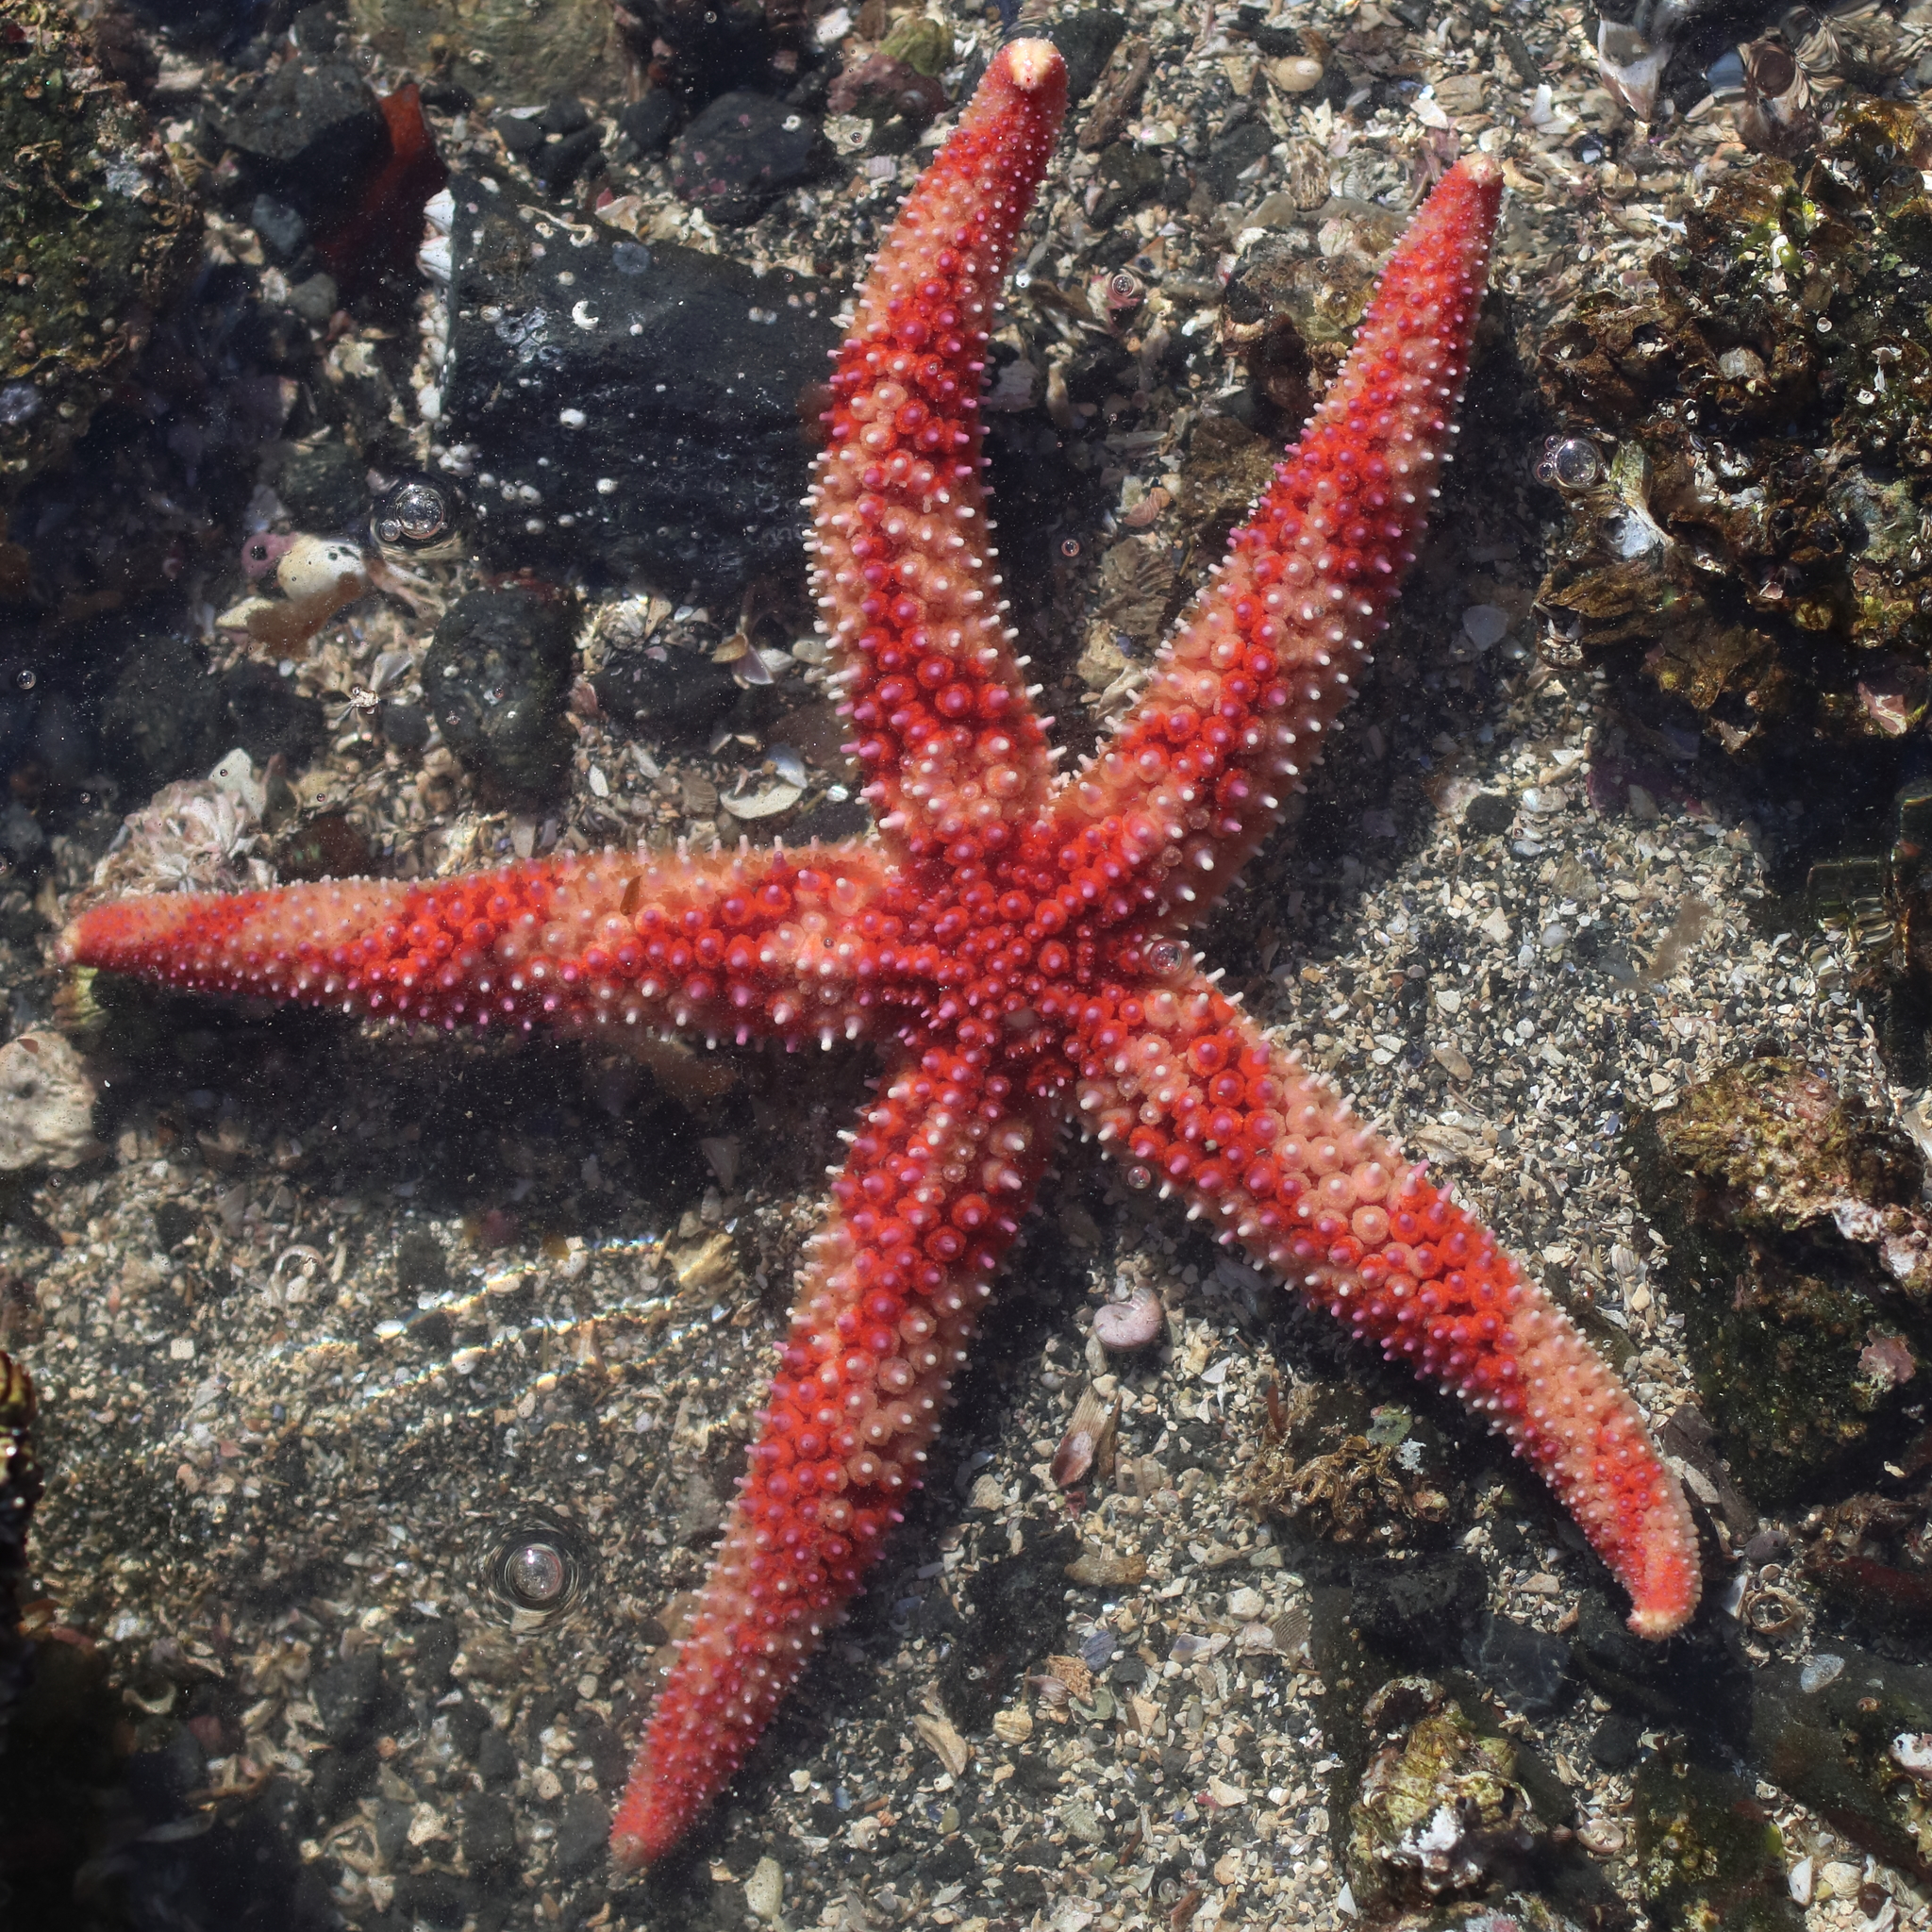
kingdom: Animalia
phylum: Echinodermata
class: Asteroidea
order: Forcipulatida
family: Asteriidae
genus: Orthasterias
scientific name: Orthasterias koehleri
